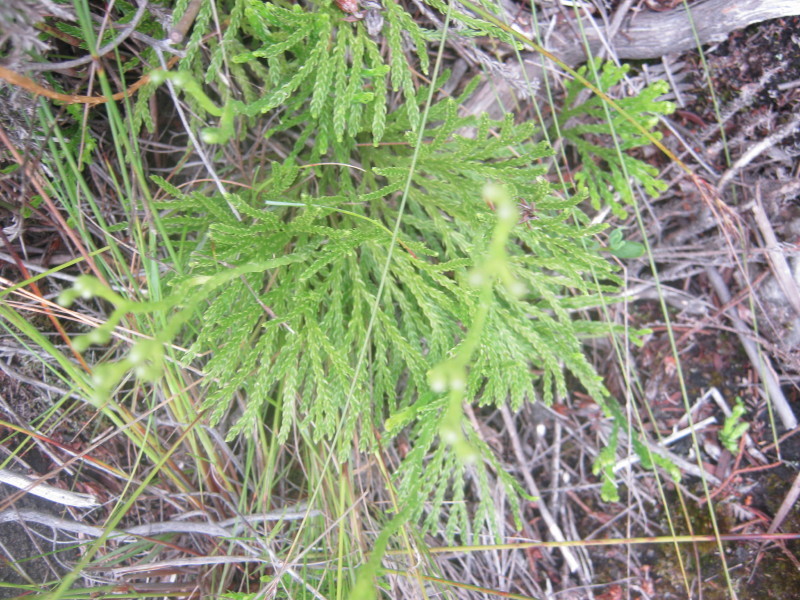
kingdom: Plantae
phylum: Tracheophyta
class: Lycopodiopsida
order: Lycopodiales
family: Lycopodiaceae
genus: Diphasiastrum
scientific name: Diphasiastrum zanclophyllum
